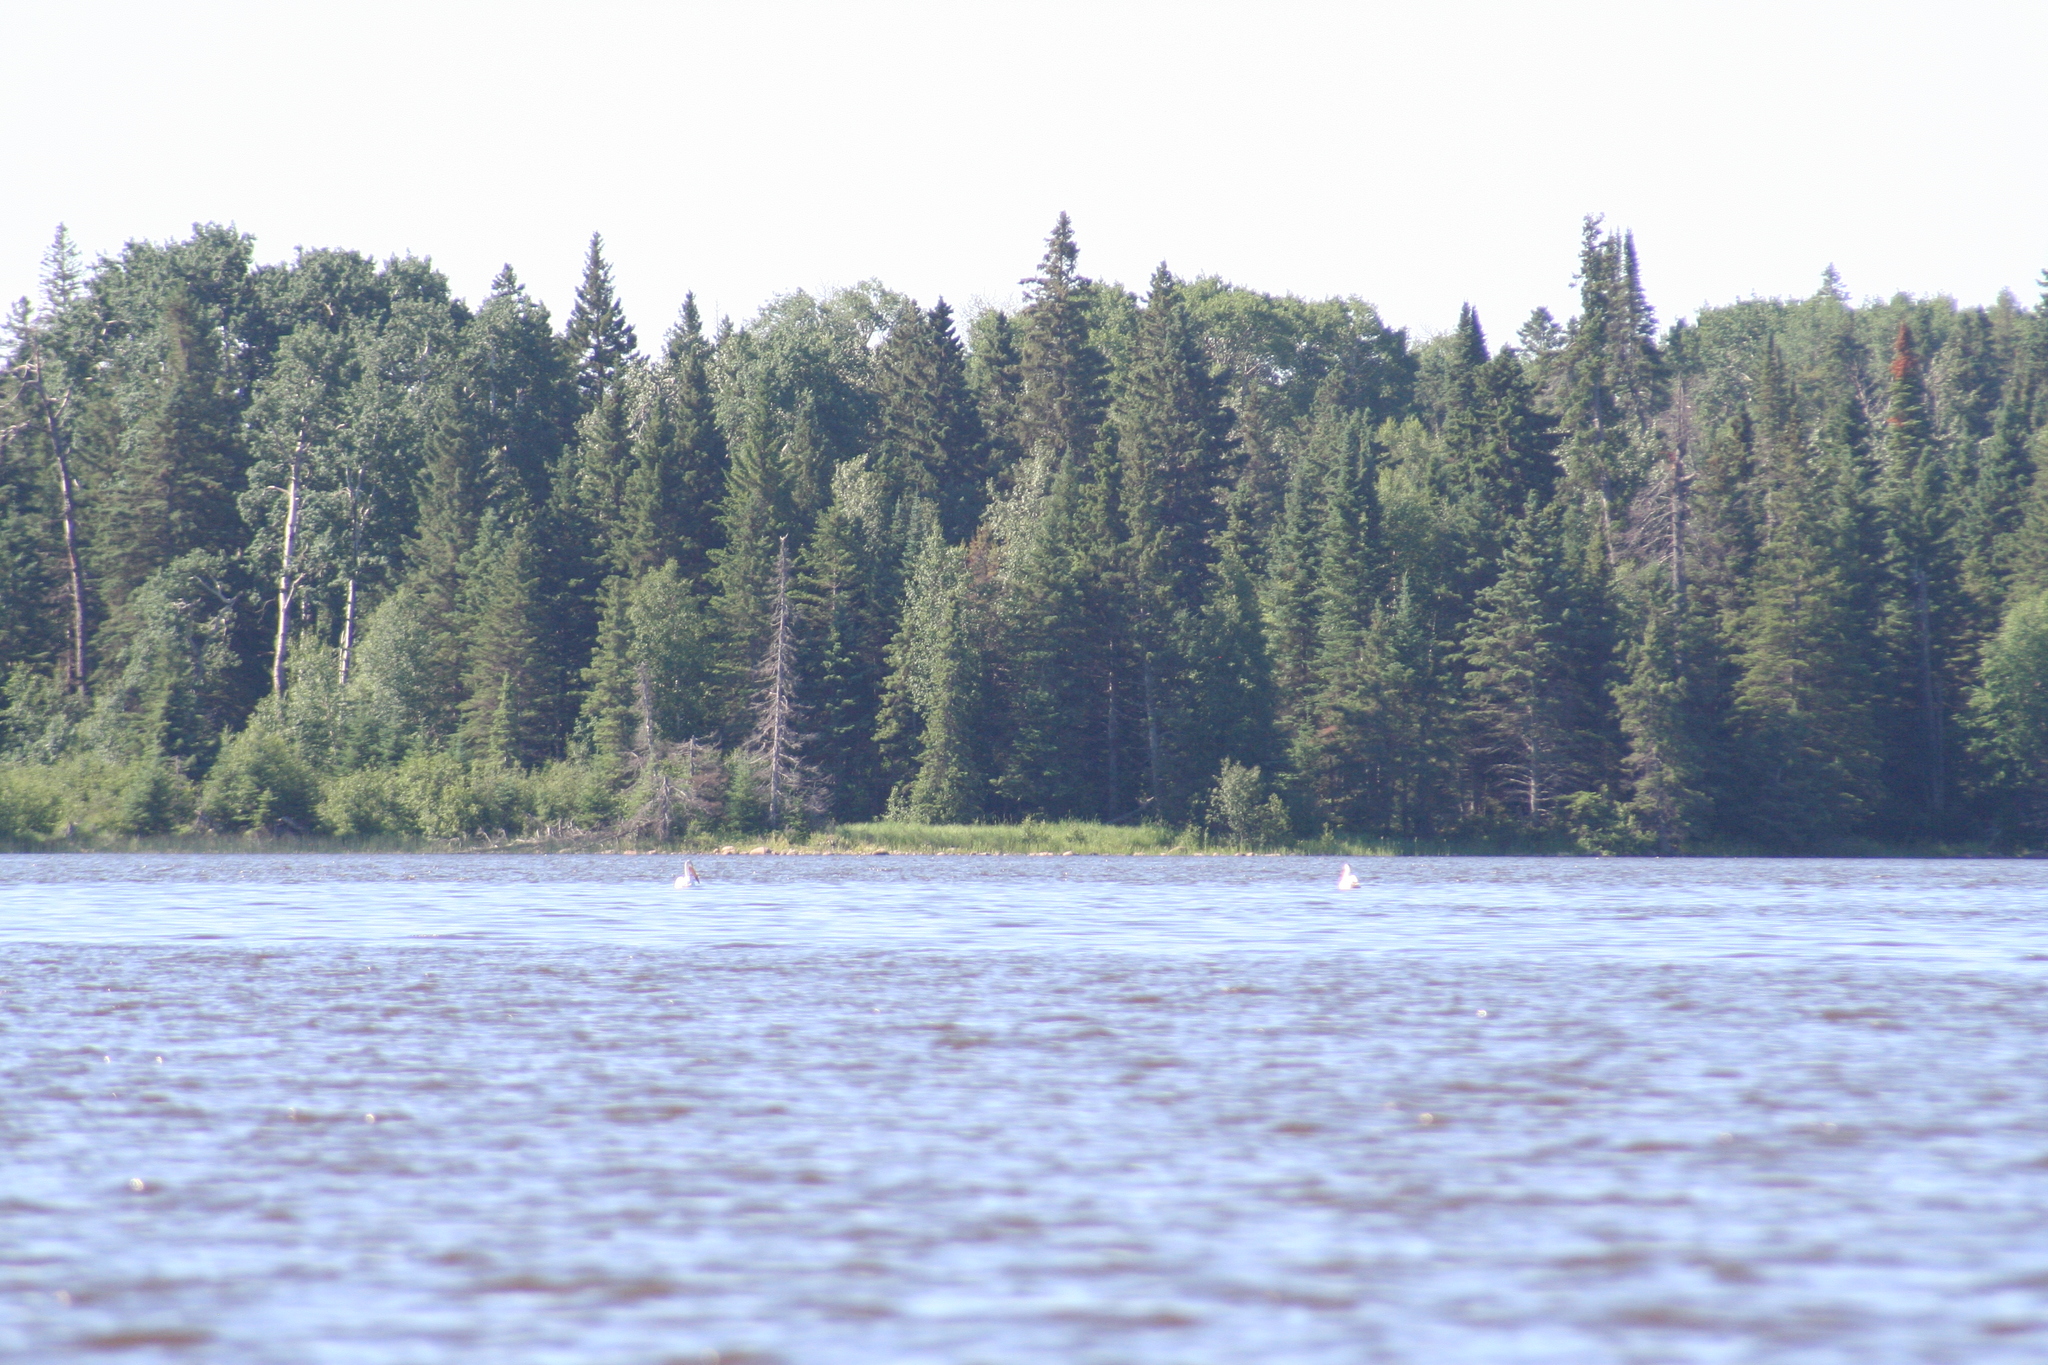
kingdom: Animalia
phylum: Chordata
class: Aves
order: Pelecaniformes
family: Pelecanidae
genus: Pelecanus
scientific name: Pelecanus erythrorhynchos
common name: American white pelican
